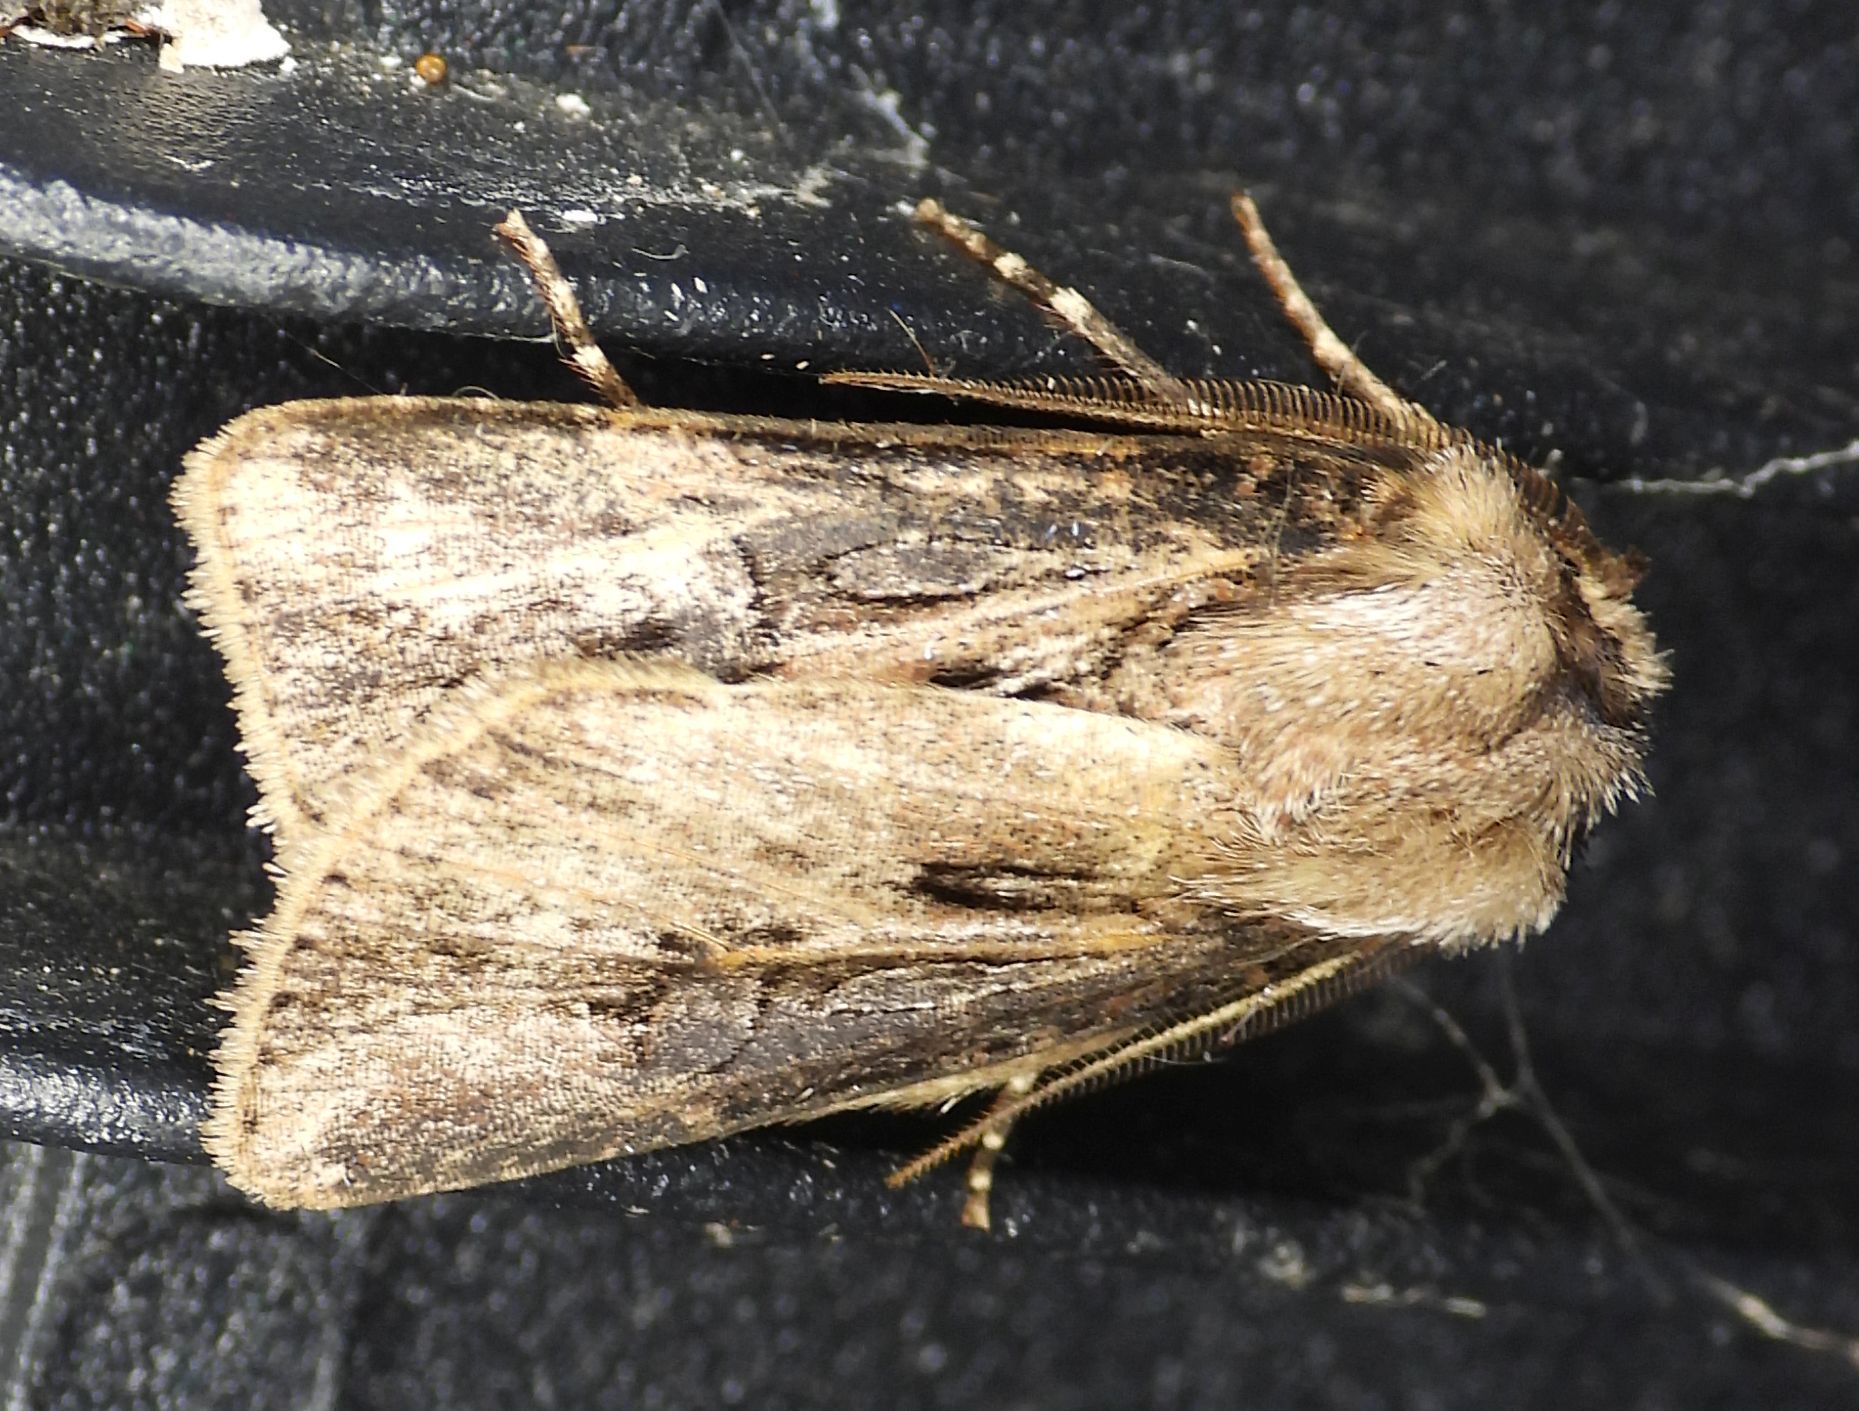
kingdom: Animalia
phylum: Arthropoda
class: Insecta
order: Lepidoptera
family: Noctuidae
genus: Agrotis
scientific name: Agrotis venerabilis
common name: Venerable dart
